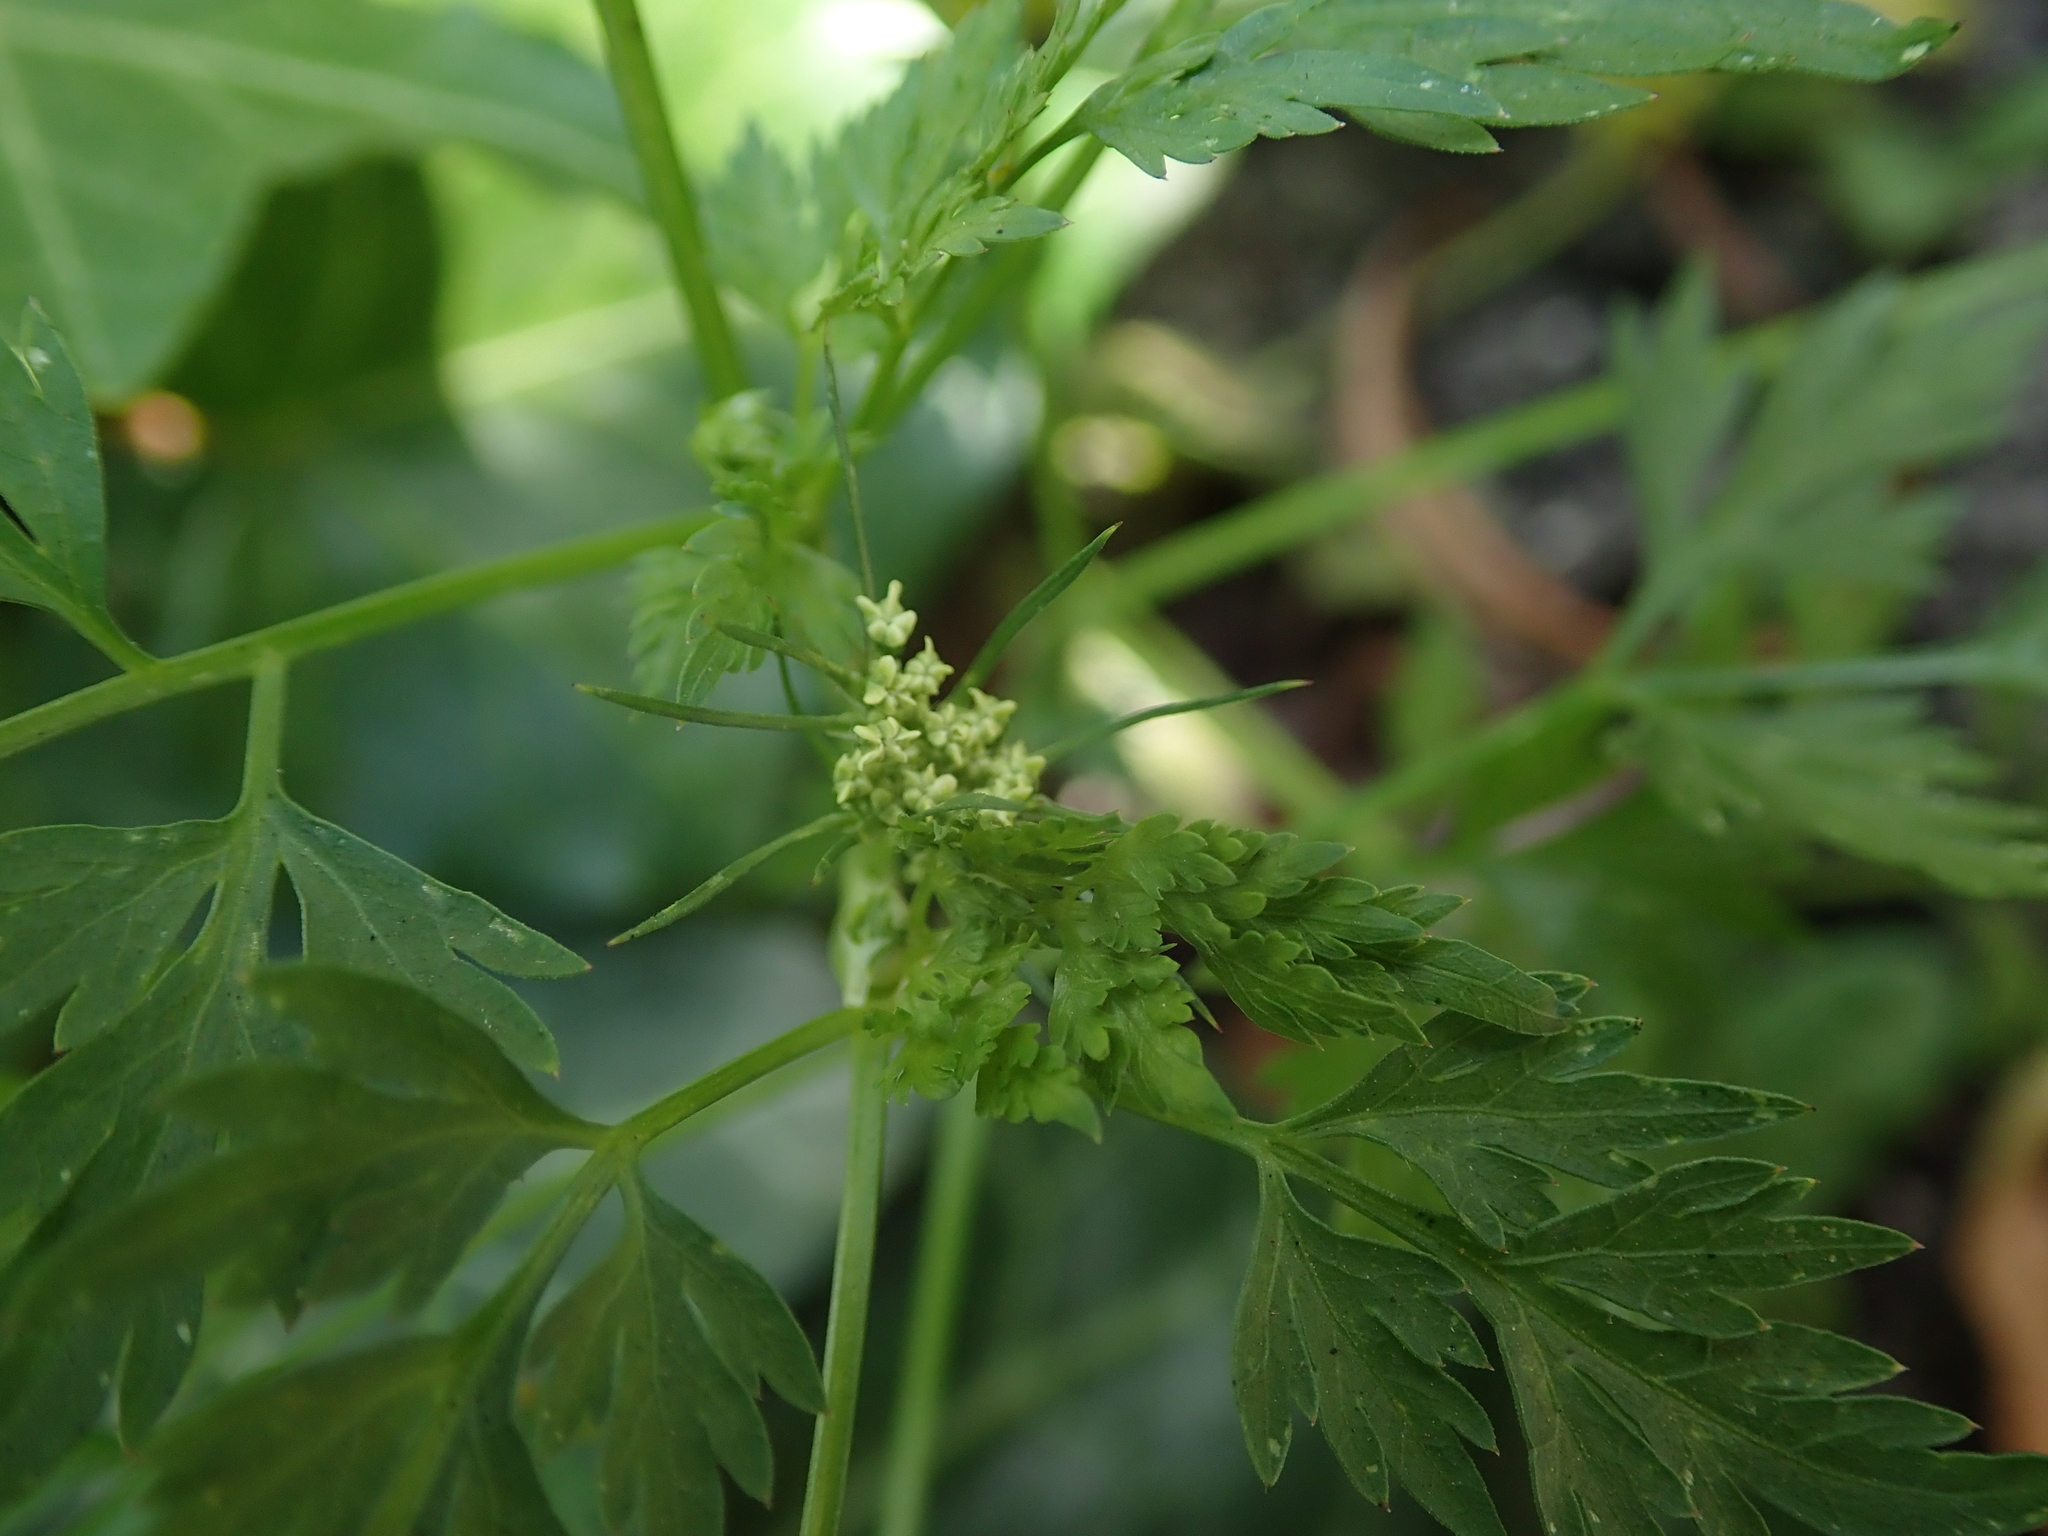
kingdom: Plantae
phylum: Tracheophyta
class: Magnoliopsida
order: Apiales
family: Apiaceae
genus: Aethusa
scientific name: Aethusa cynapium
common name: Fool's parsley
